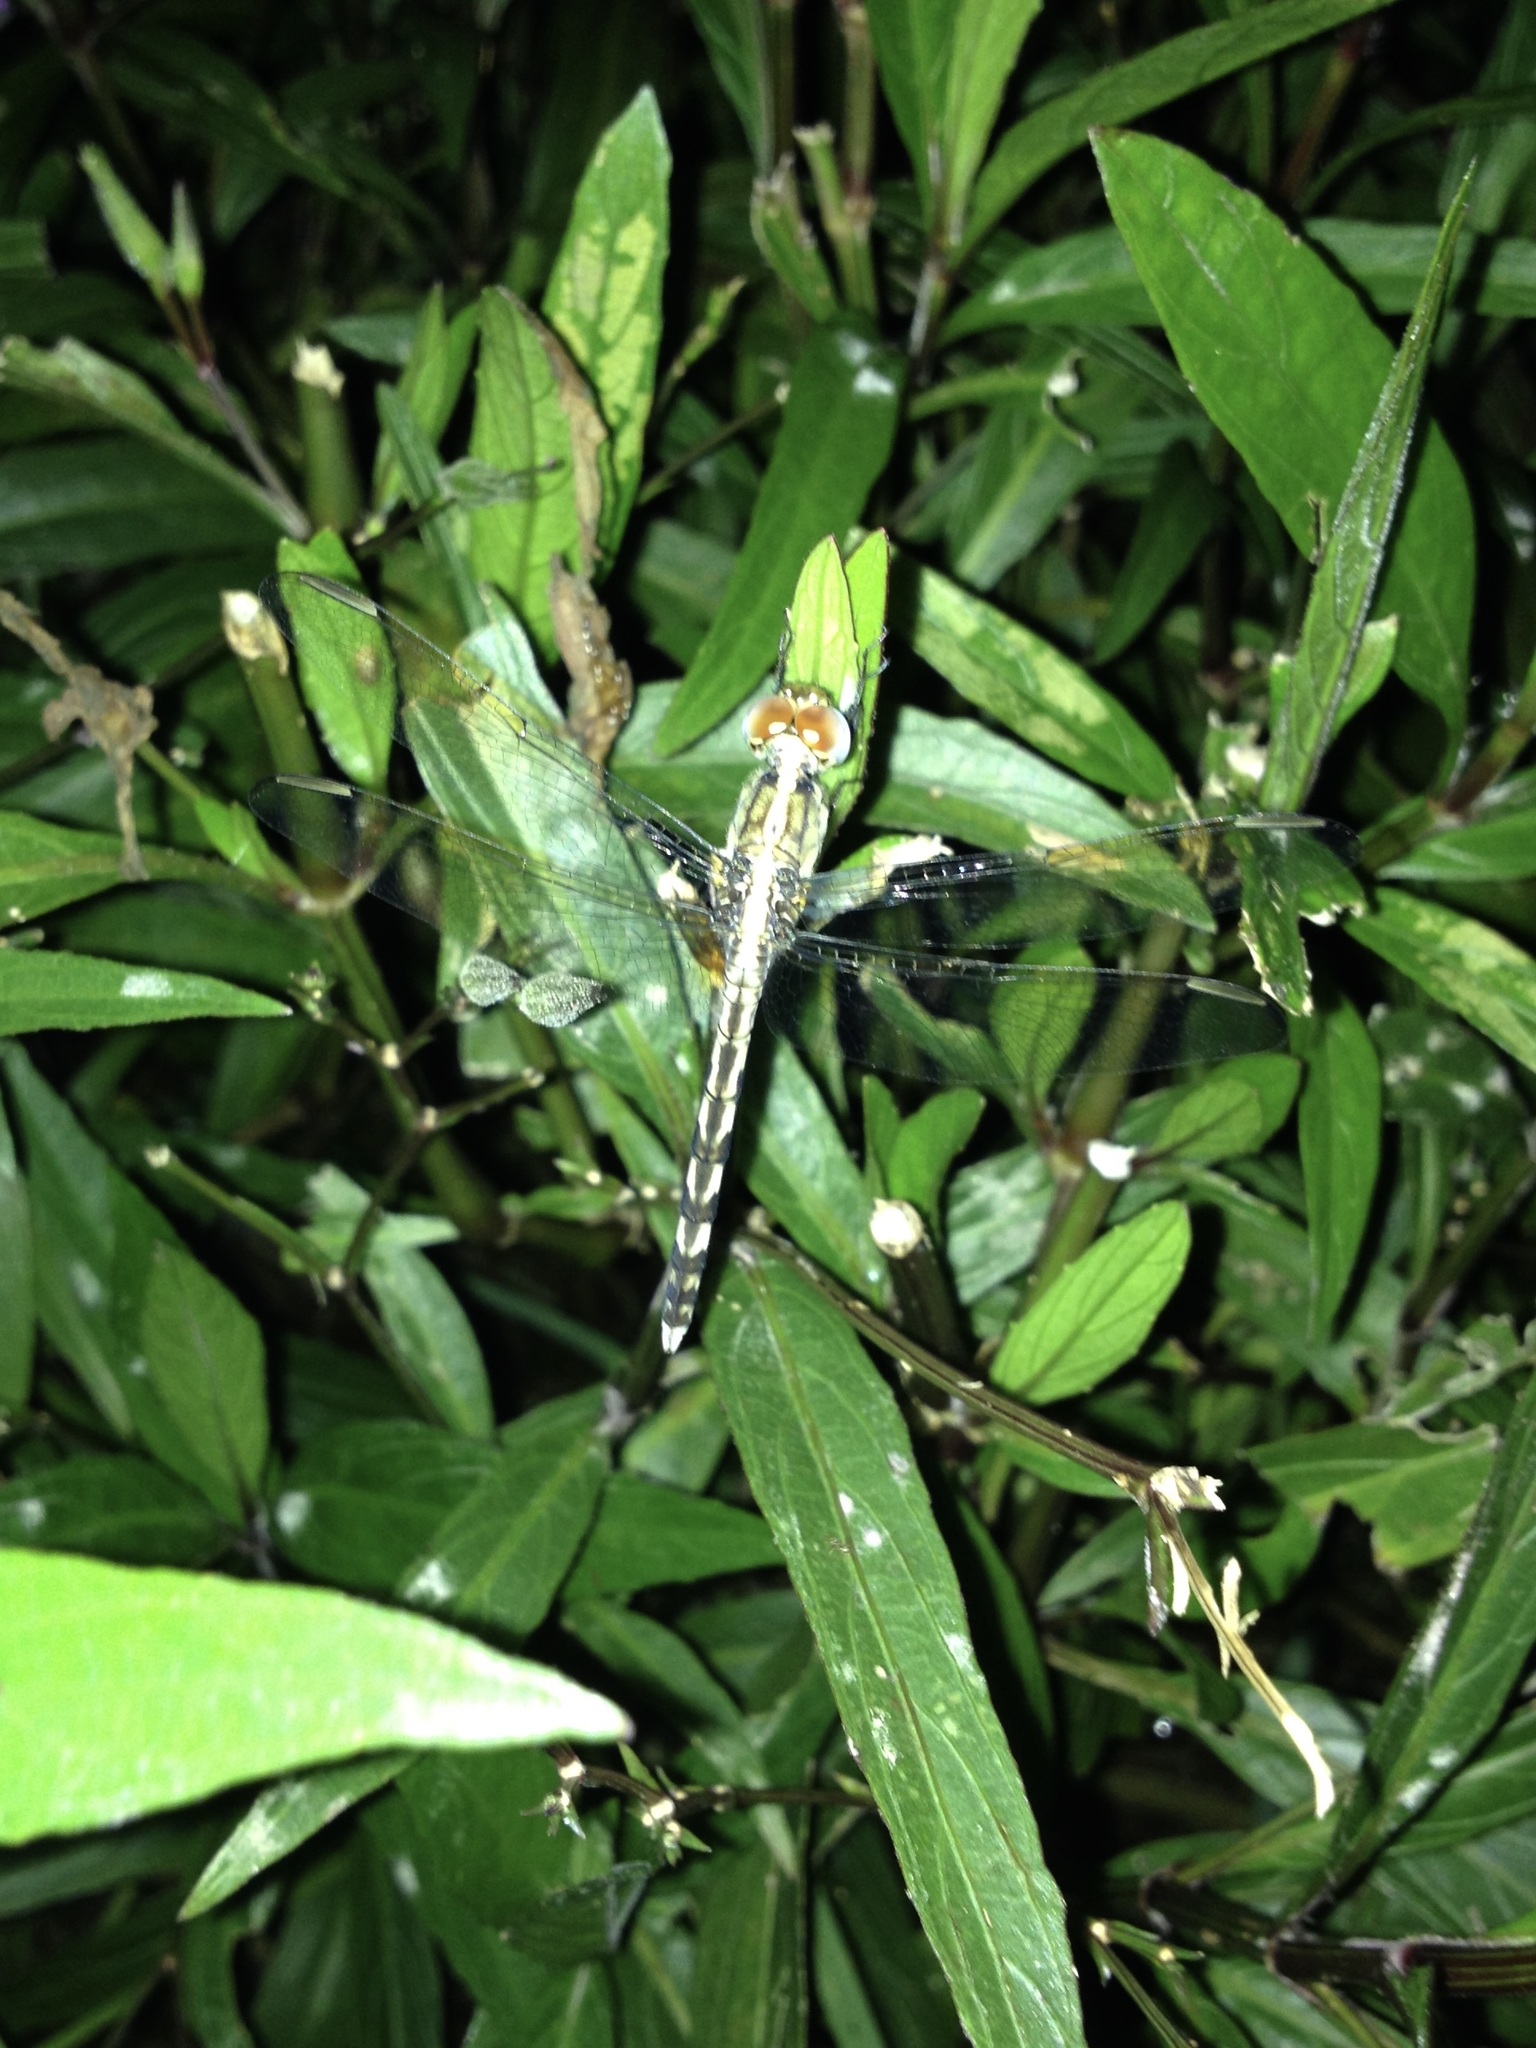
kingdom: Animalia
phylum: Arthropoda
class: Insecta
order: Odonata
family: Libellulidae
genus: Erythrodiplax
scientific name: Erythrodiplax umbrata
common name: Band-winged dragonlet
